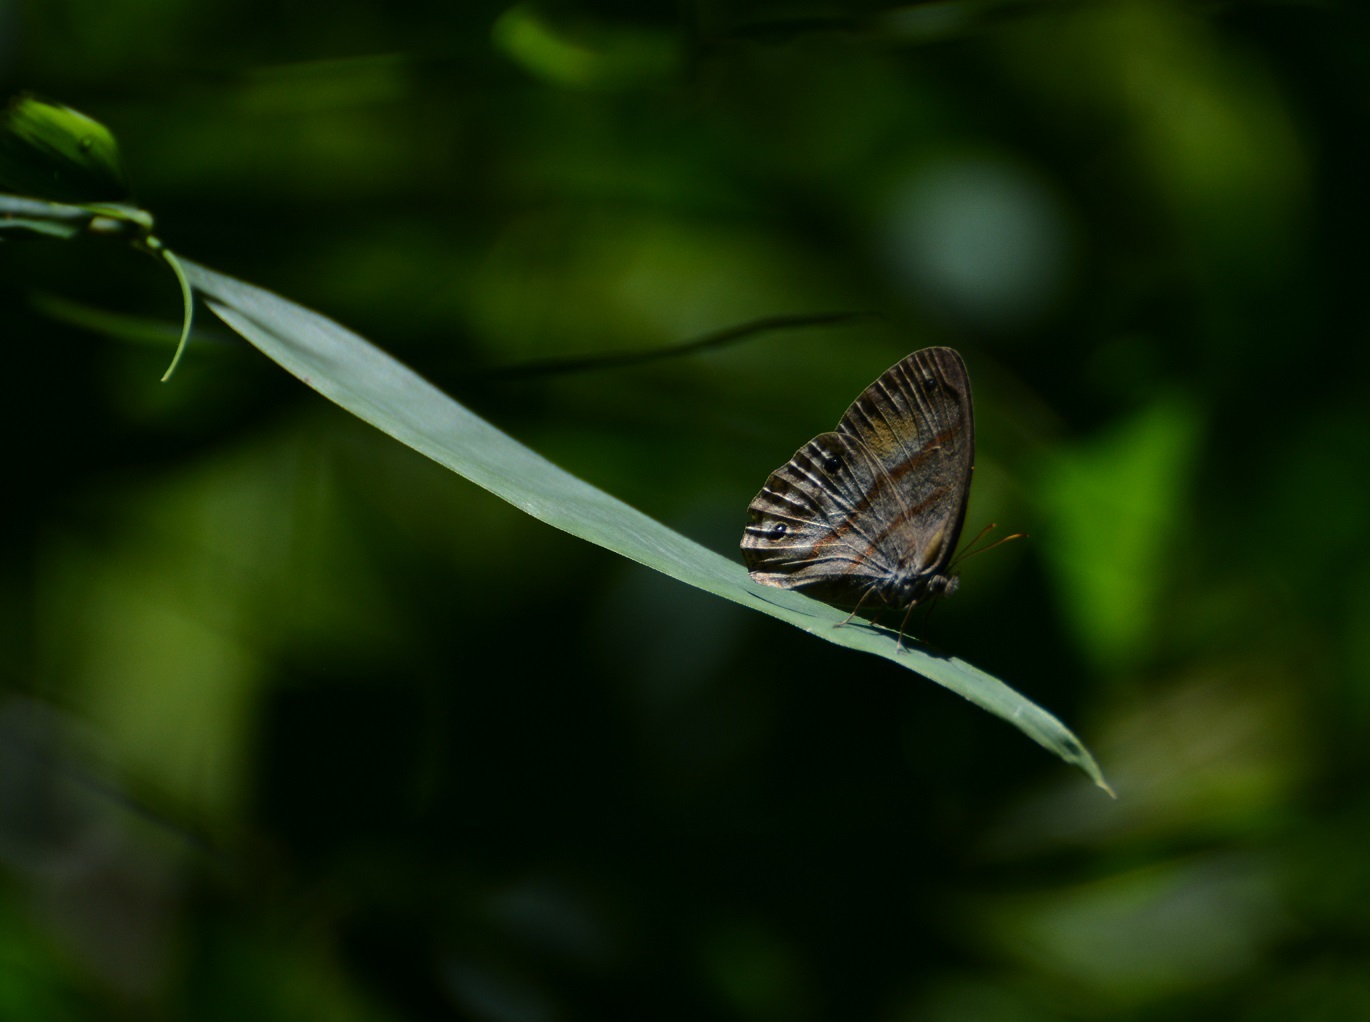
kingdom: Animalia
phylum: Arthropoda
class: Insecta
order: Lepidoptera
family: Nymphalidae
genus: Paryphthimoides
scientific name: Paryphthimoides
